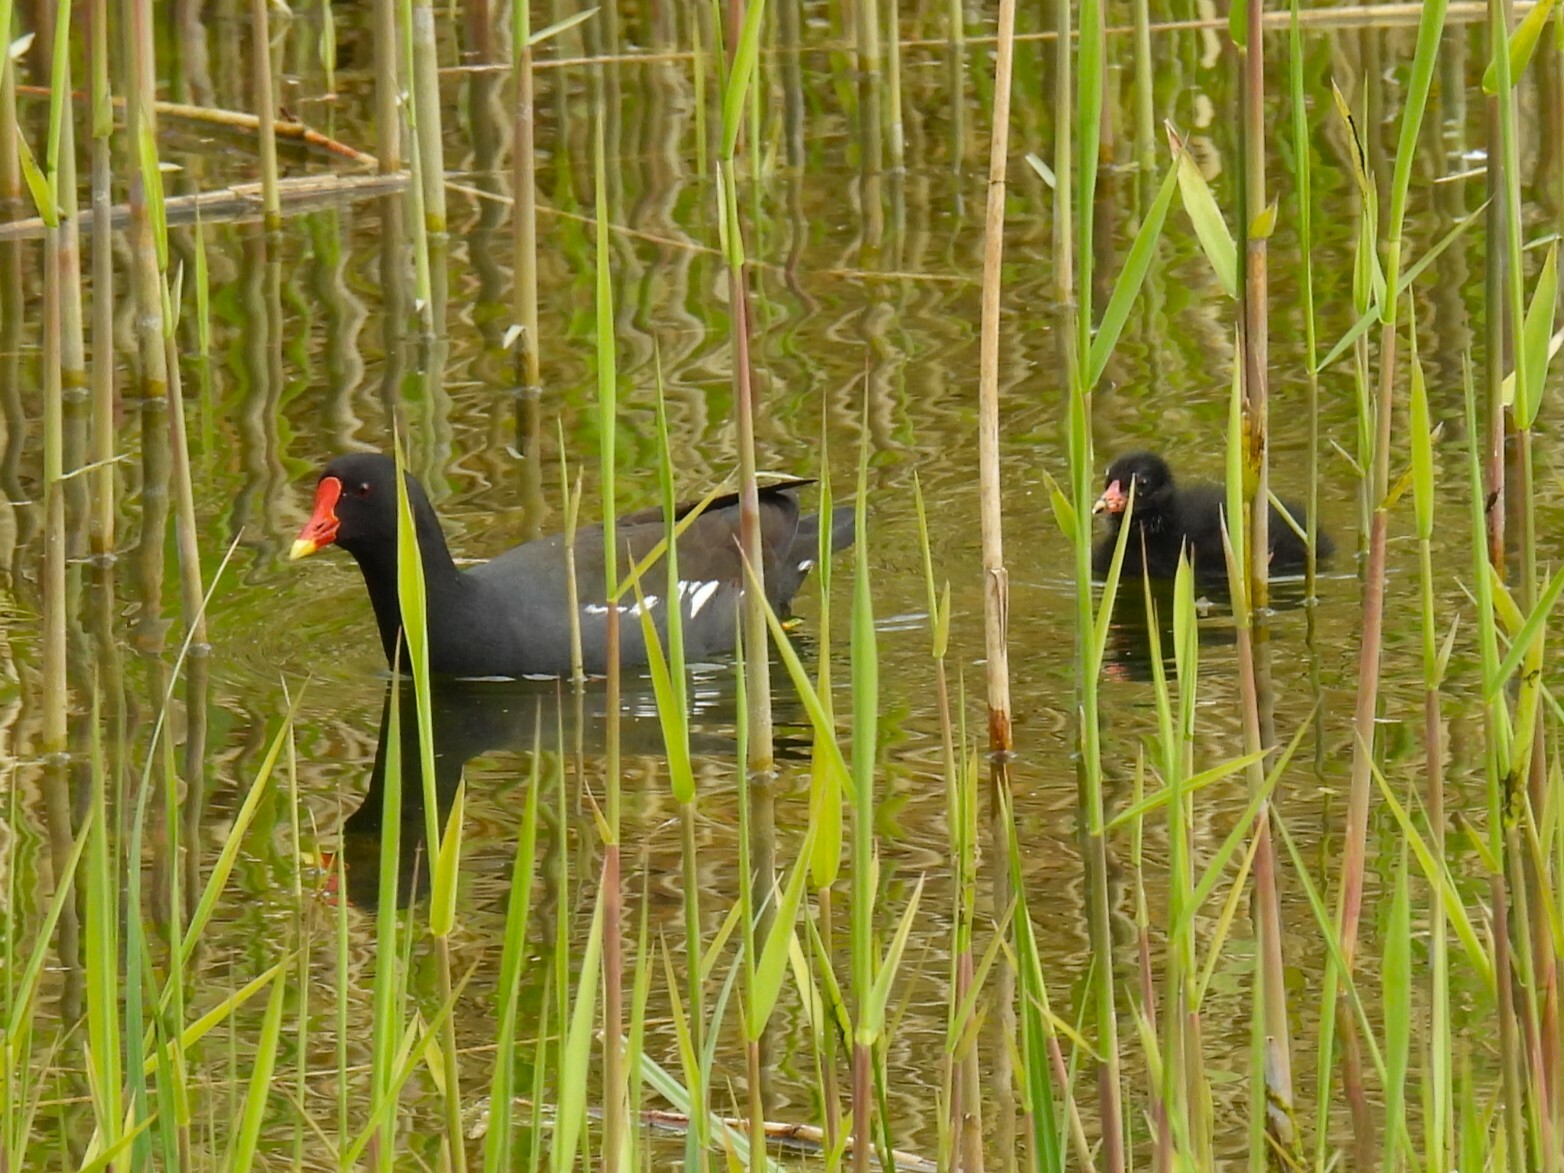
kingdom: Animalia
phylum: Chordata
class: Aves
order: Gruiformes
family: Rallidae
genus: Gallinula
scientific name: Gallinula chloropus
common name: Common moorhen
